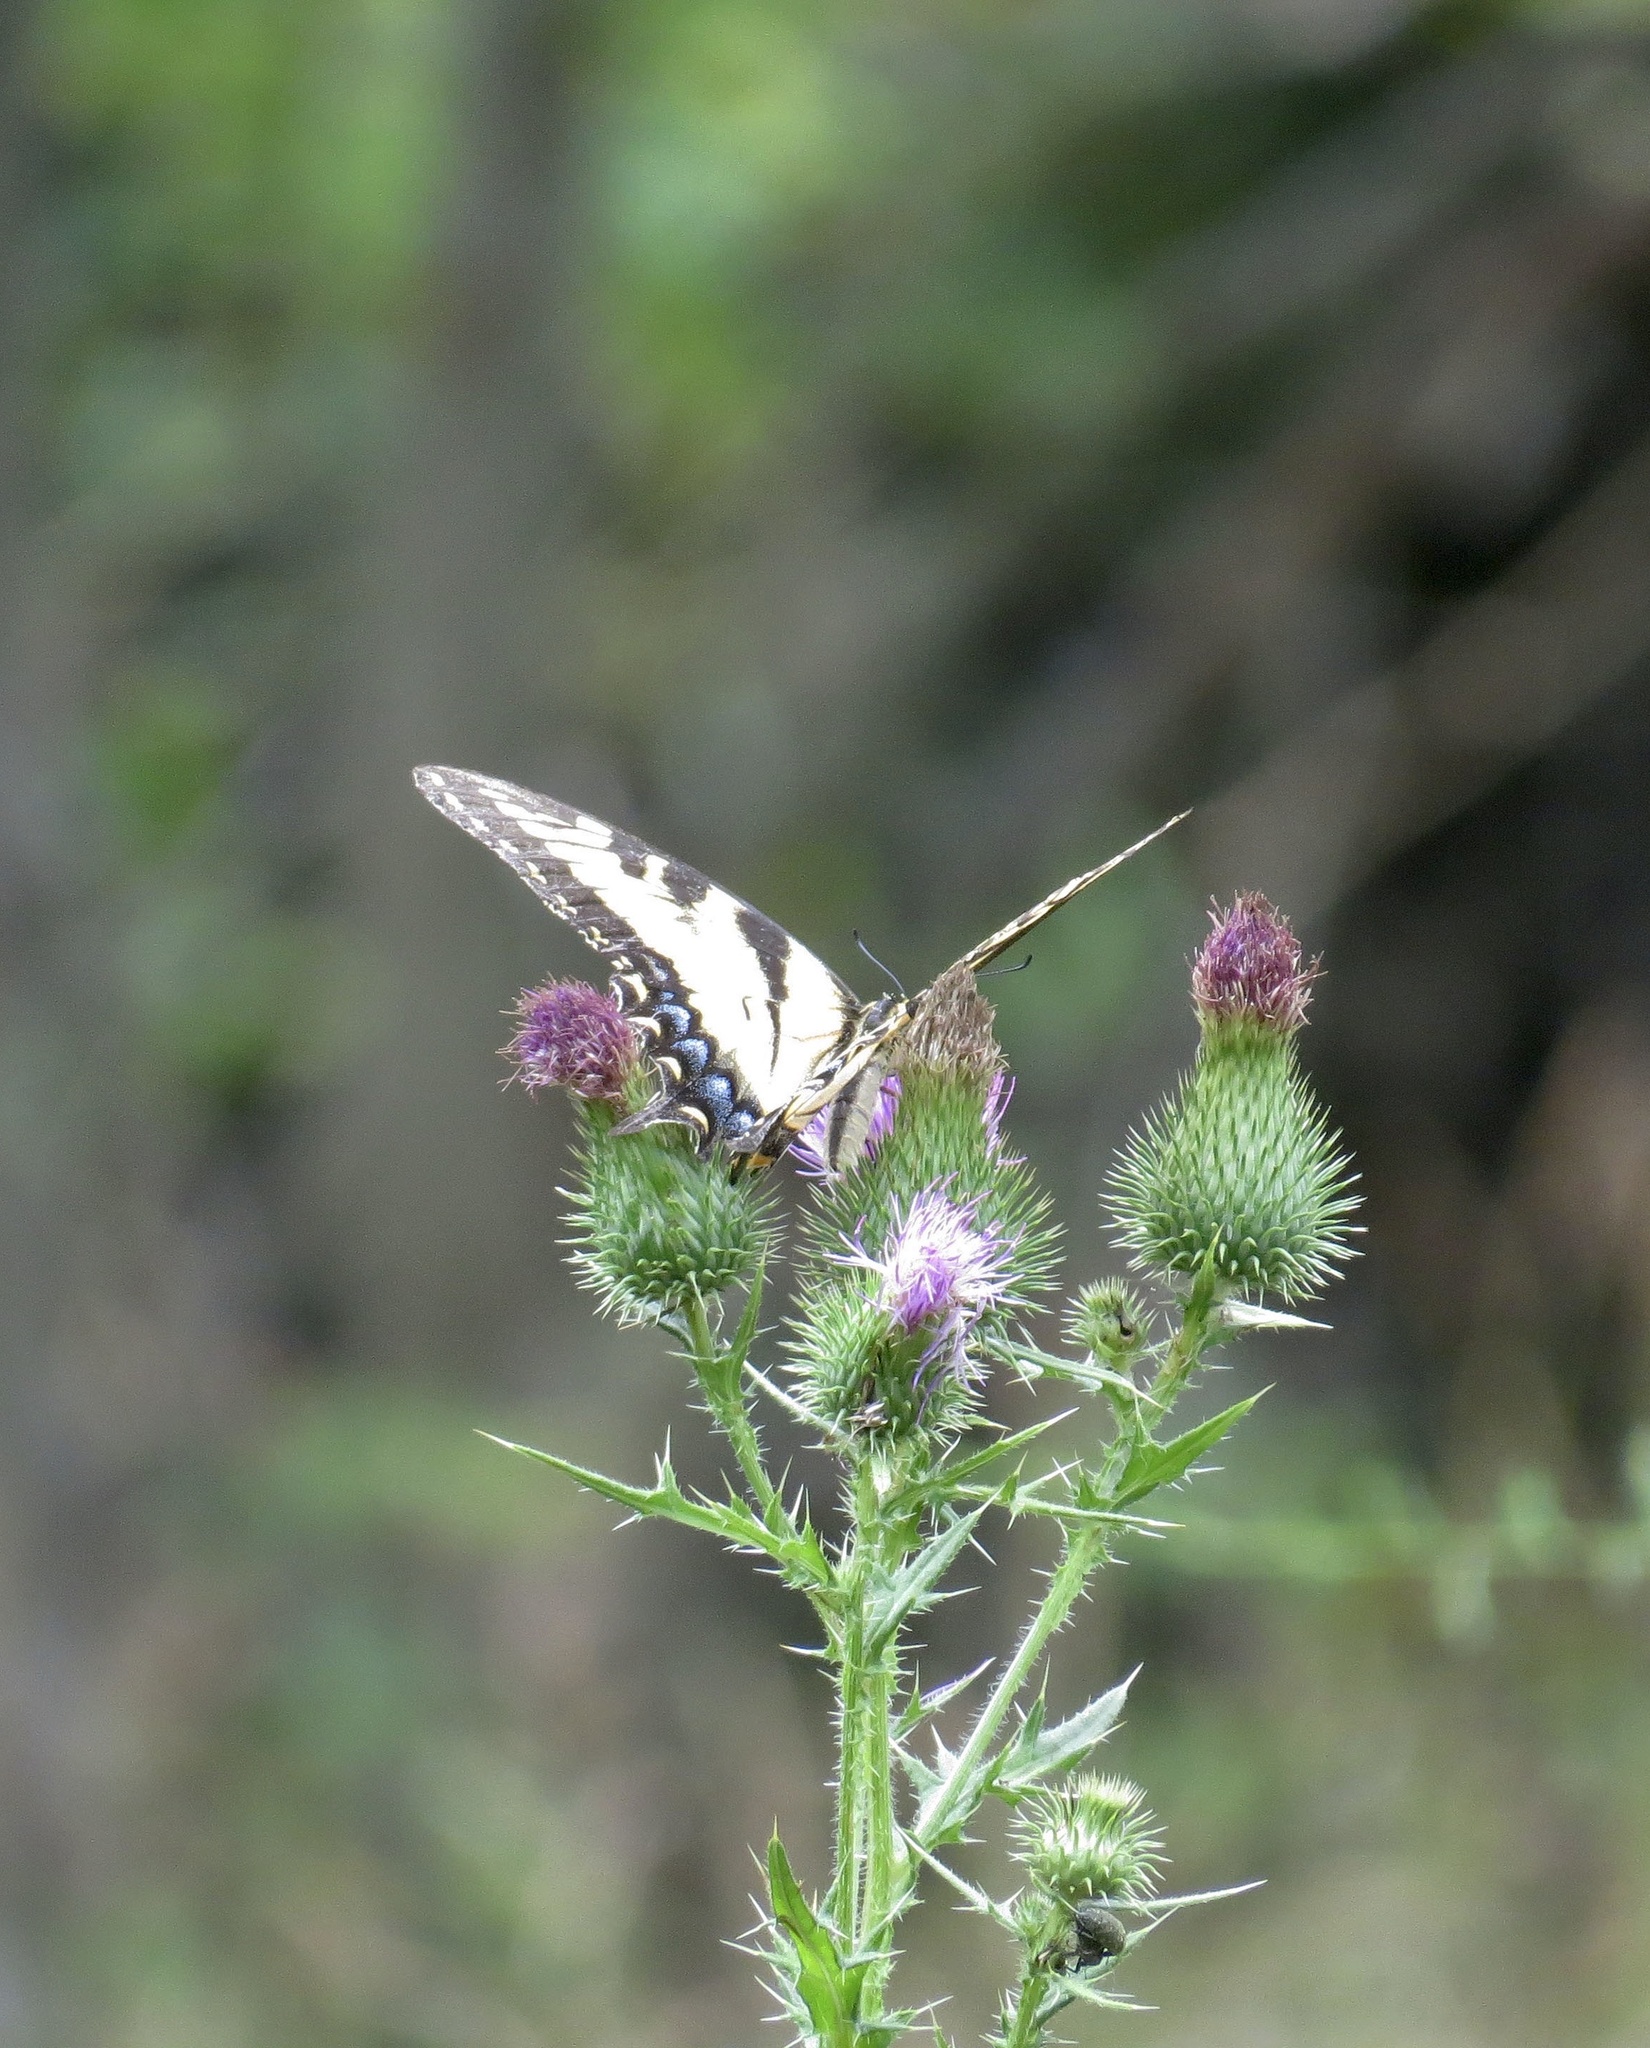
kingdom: Animalia
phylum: Arthropoda
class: Insecta
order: Lepidoptera
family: Papilionidae
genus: Papilio
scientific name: Papilio glaucus
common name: Tiger swallowtail
